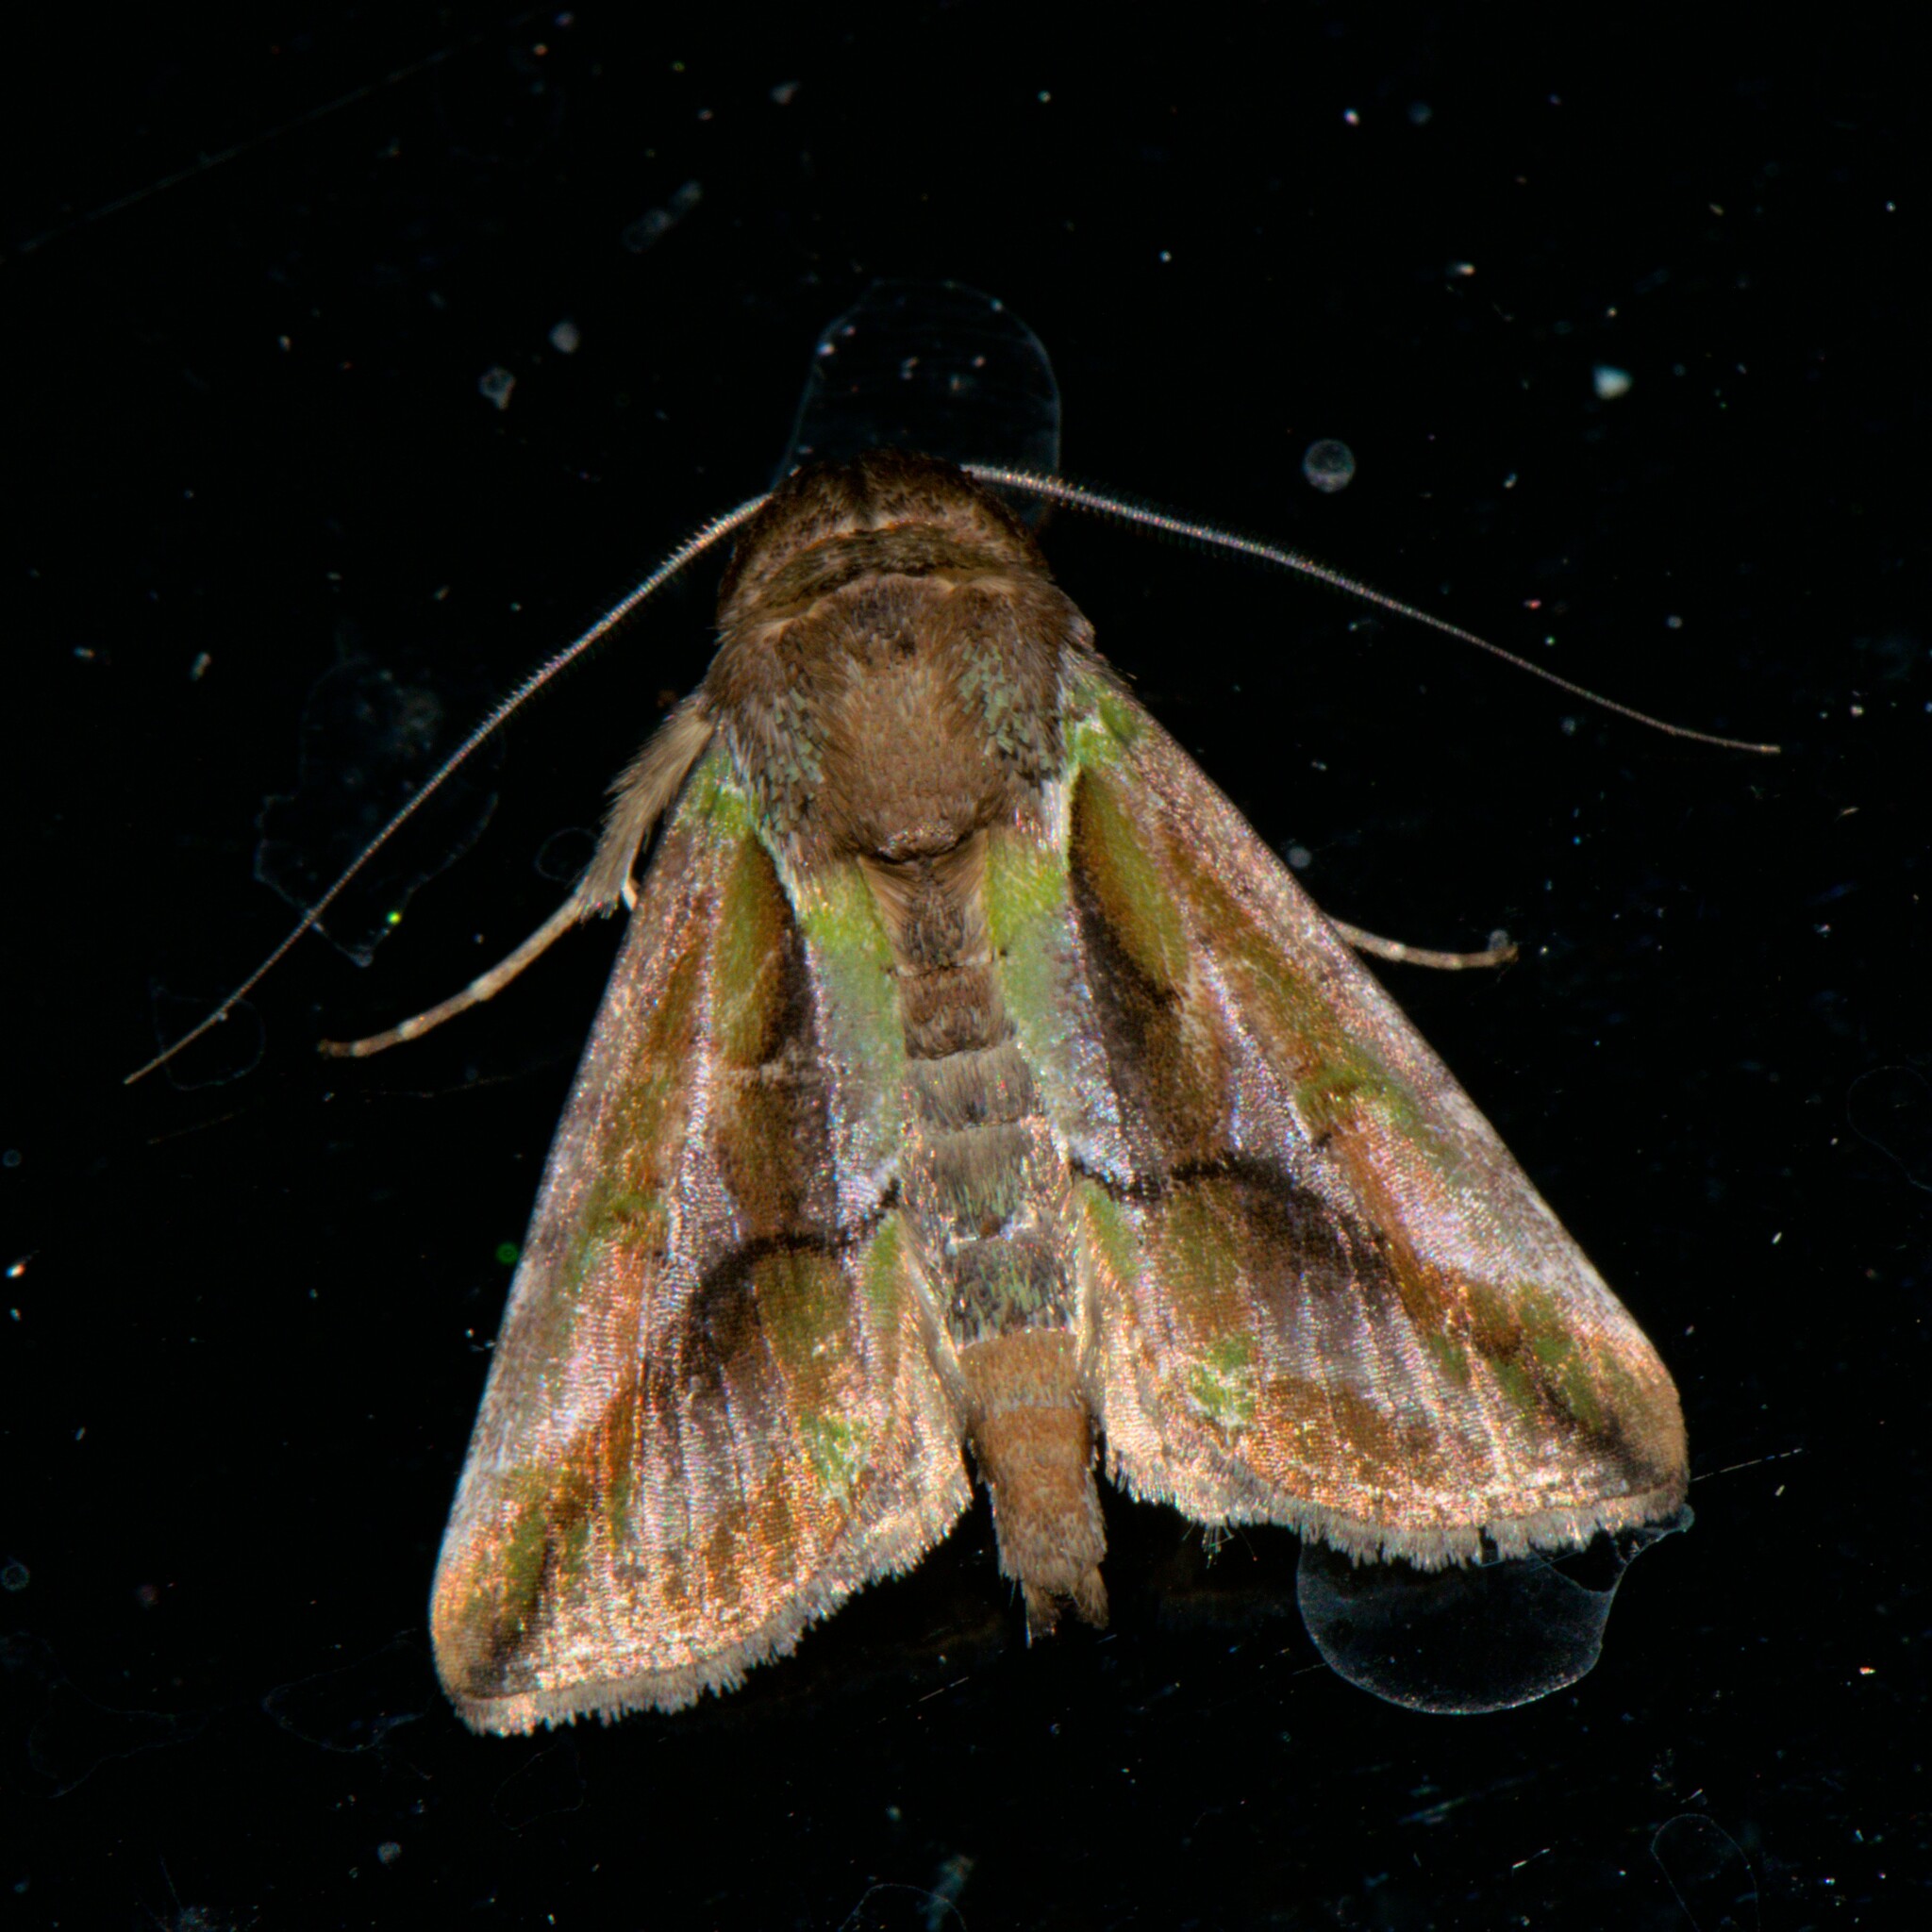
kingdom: Animalia
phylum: Arthropoda
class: Insecta
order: Lepidoptera
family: Nolidae
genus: Risoba
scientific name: Risoba variegata
